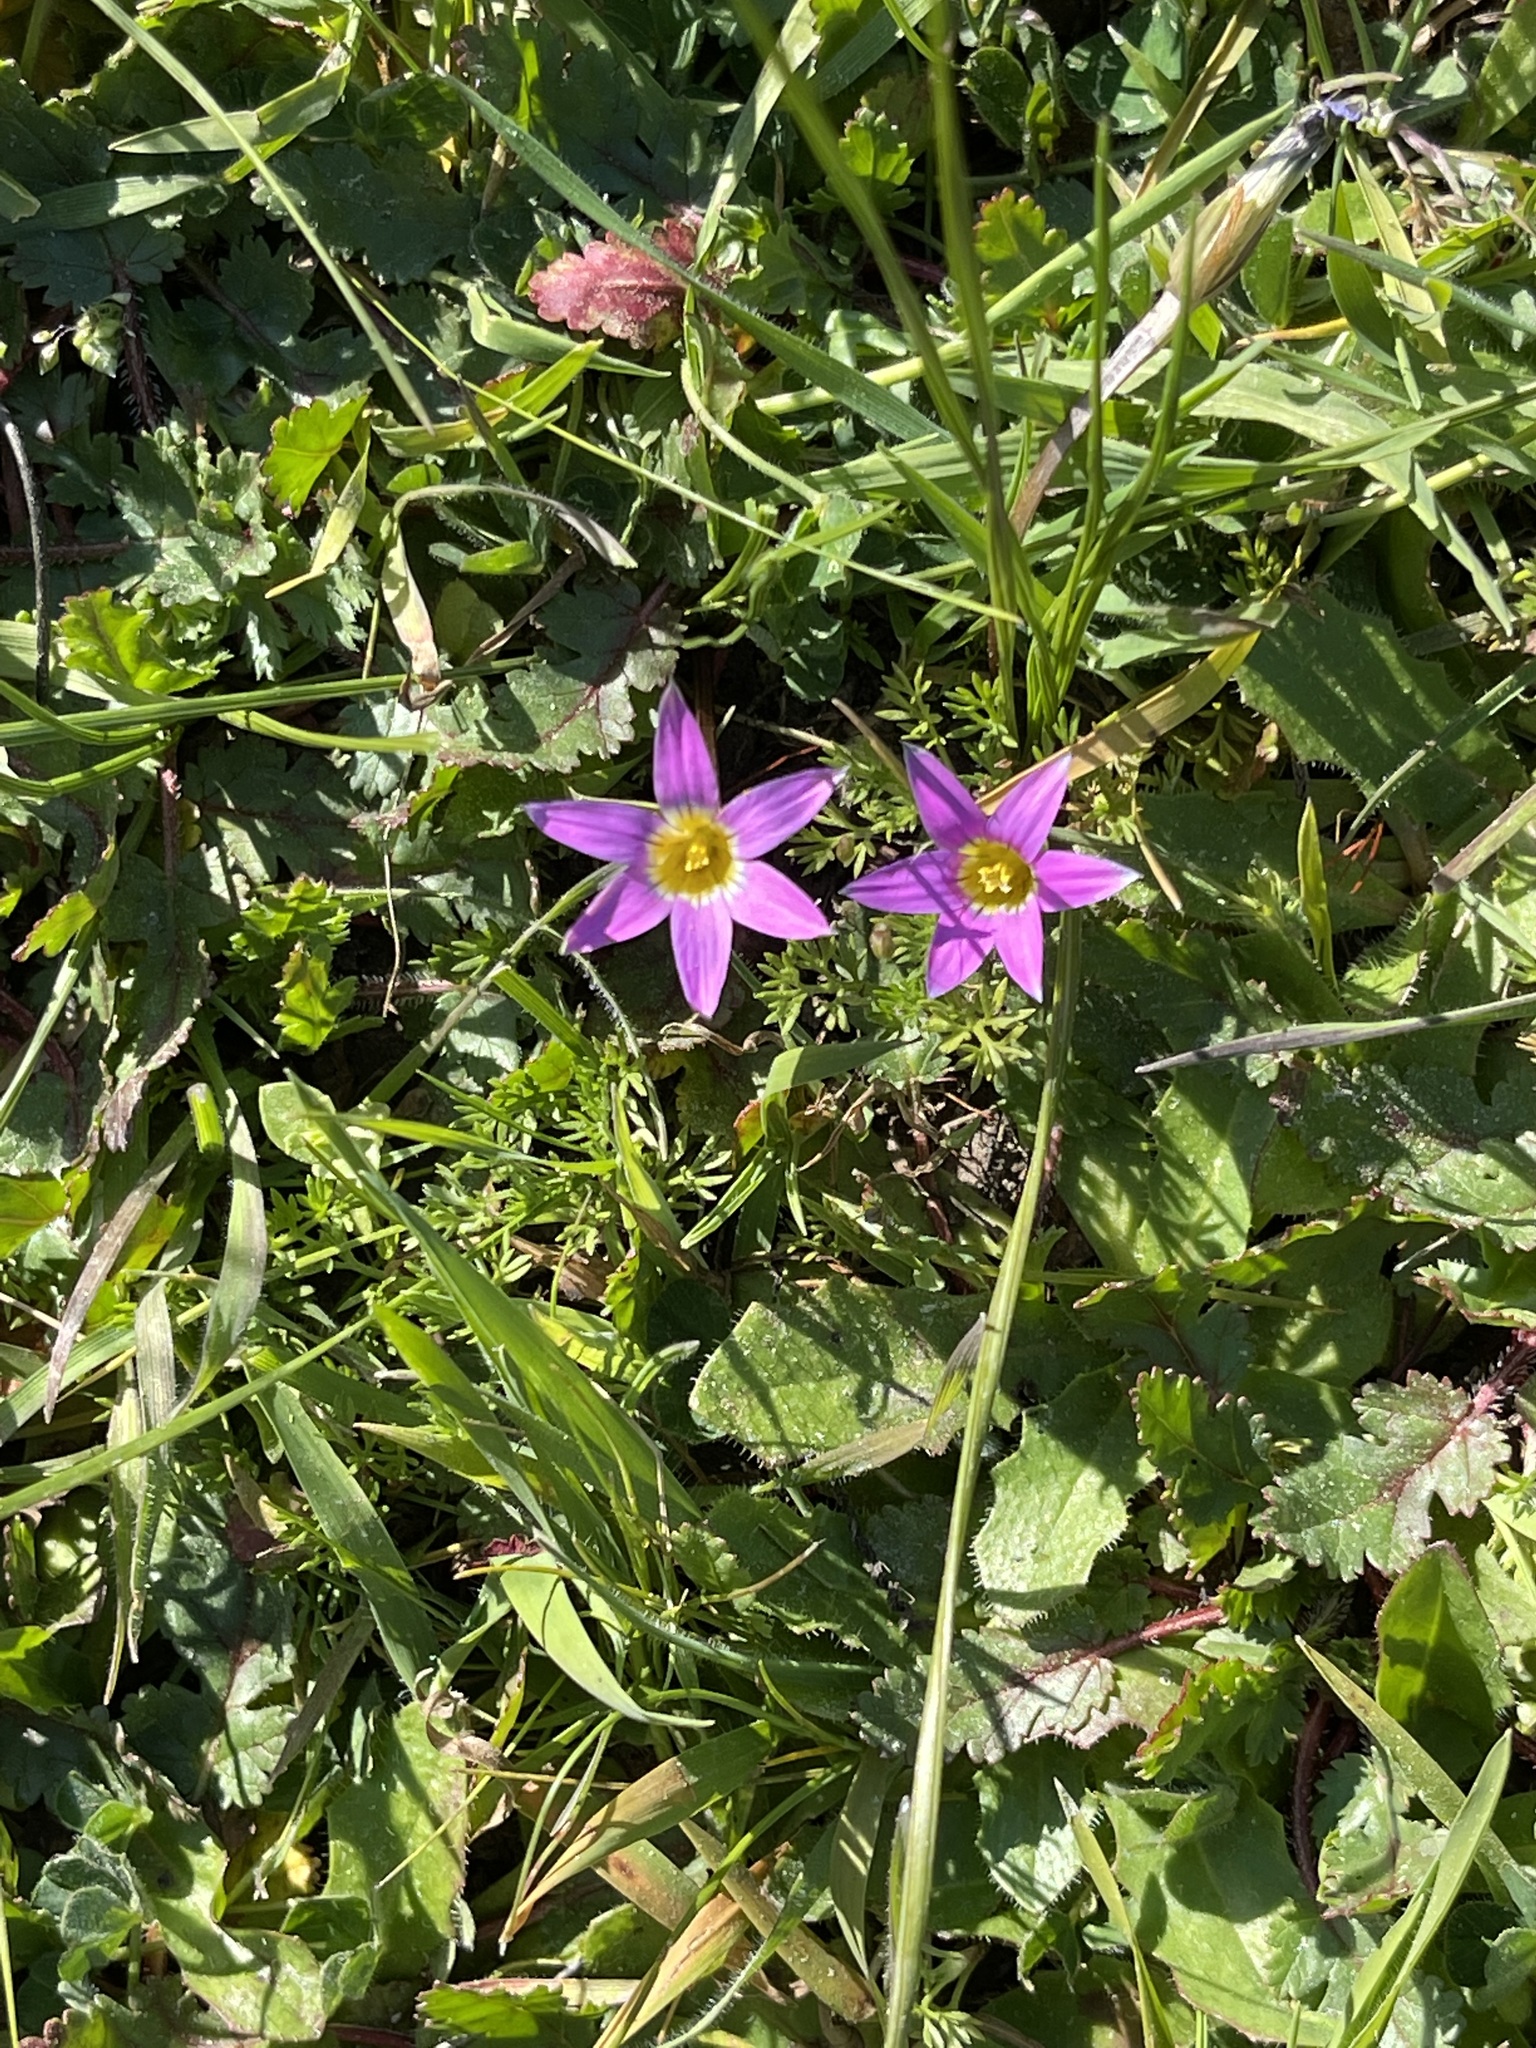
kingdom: Plantae
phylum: Tracheophyta
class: Liliopsida
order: Asparagales
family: Iridaceae
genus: Romulea
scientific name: Romulea rosea
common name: Oniongrass
